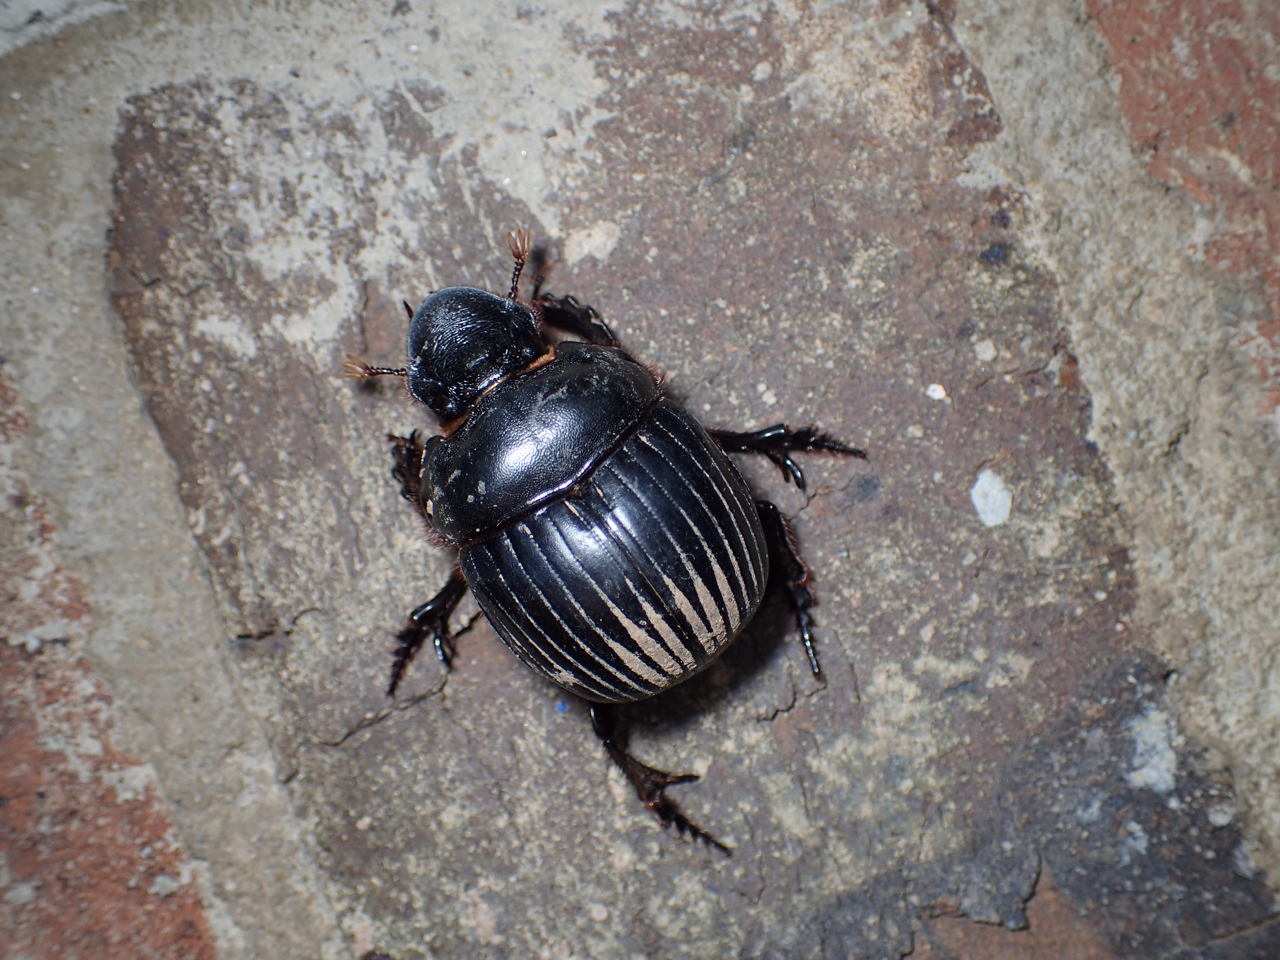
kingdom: Animalia
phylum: Arthropoda
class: Insecta
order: Coleoptera
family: Scarabaeidae
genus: Dichotomius
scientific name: Dichotomius carolinus
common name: Carolina copris
